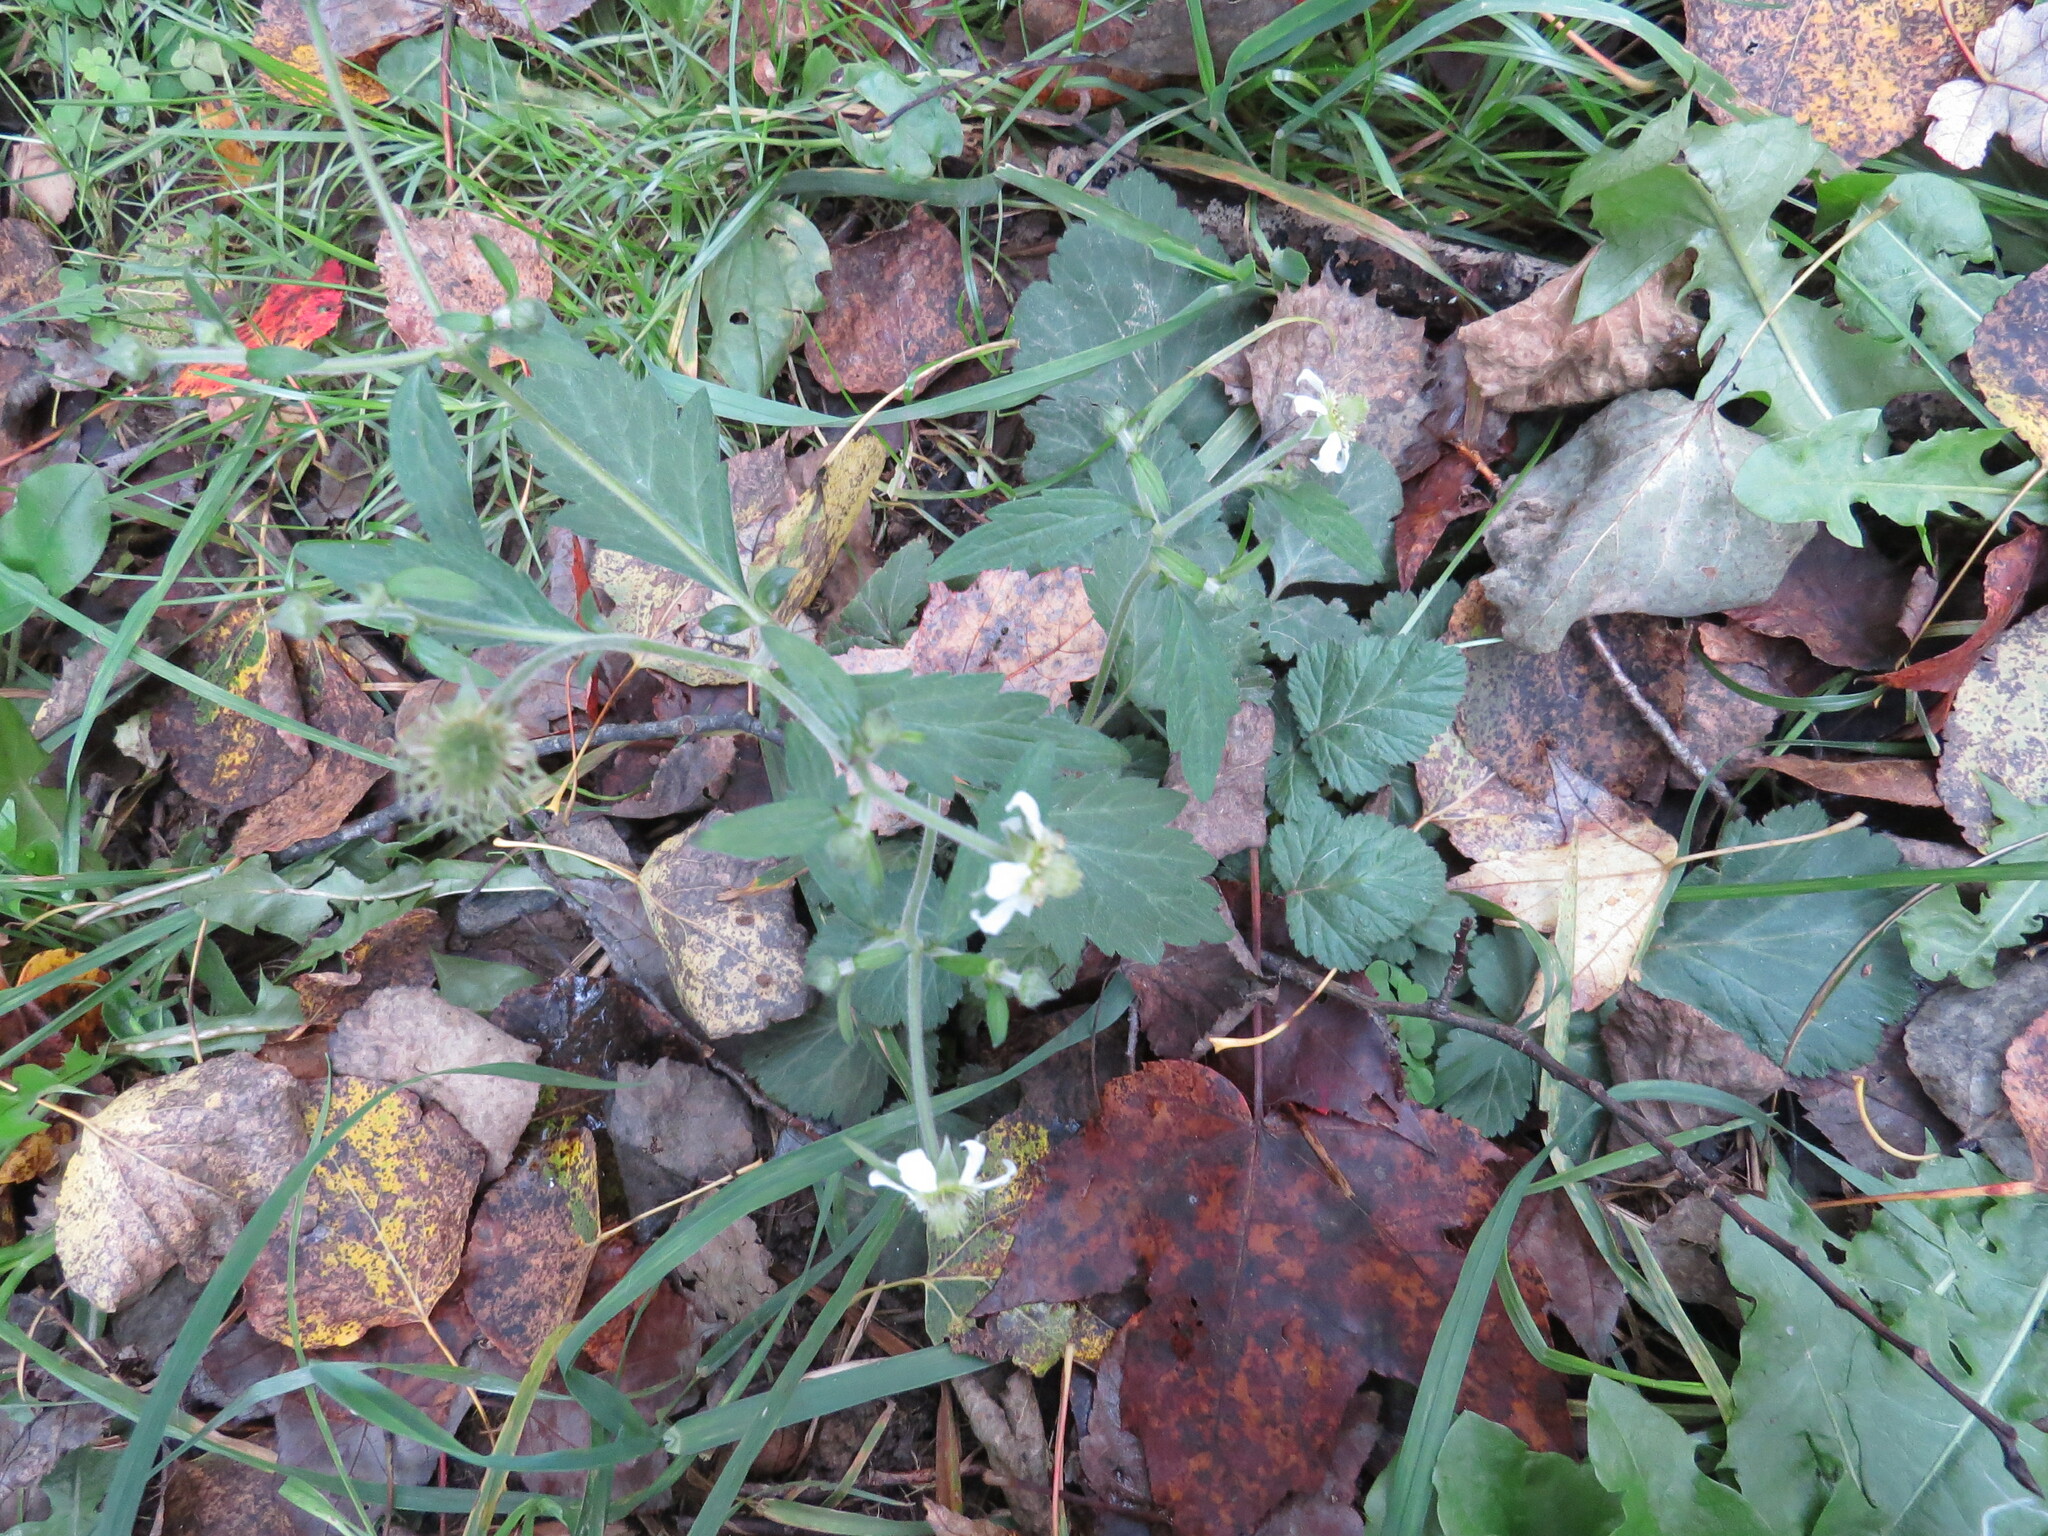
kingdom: Plantae
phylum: Tracheophyta
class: Magnoliopsida
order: Rosales
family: Rosaceae
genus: Geum
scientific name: Geum canadense
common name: White avens
